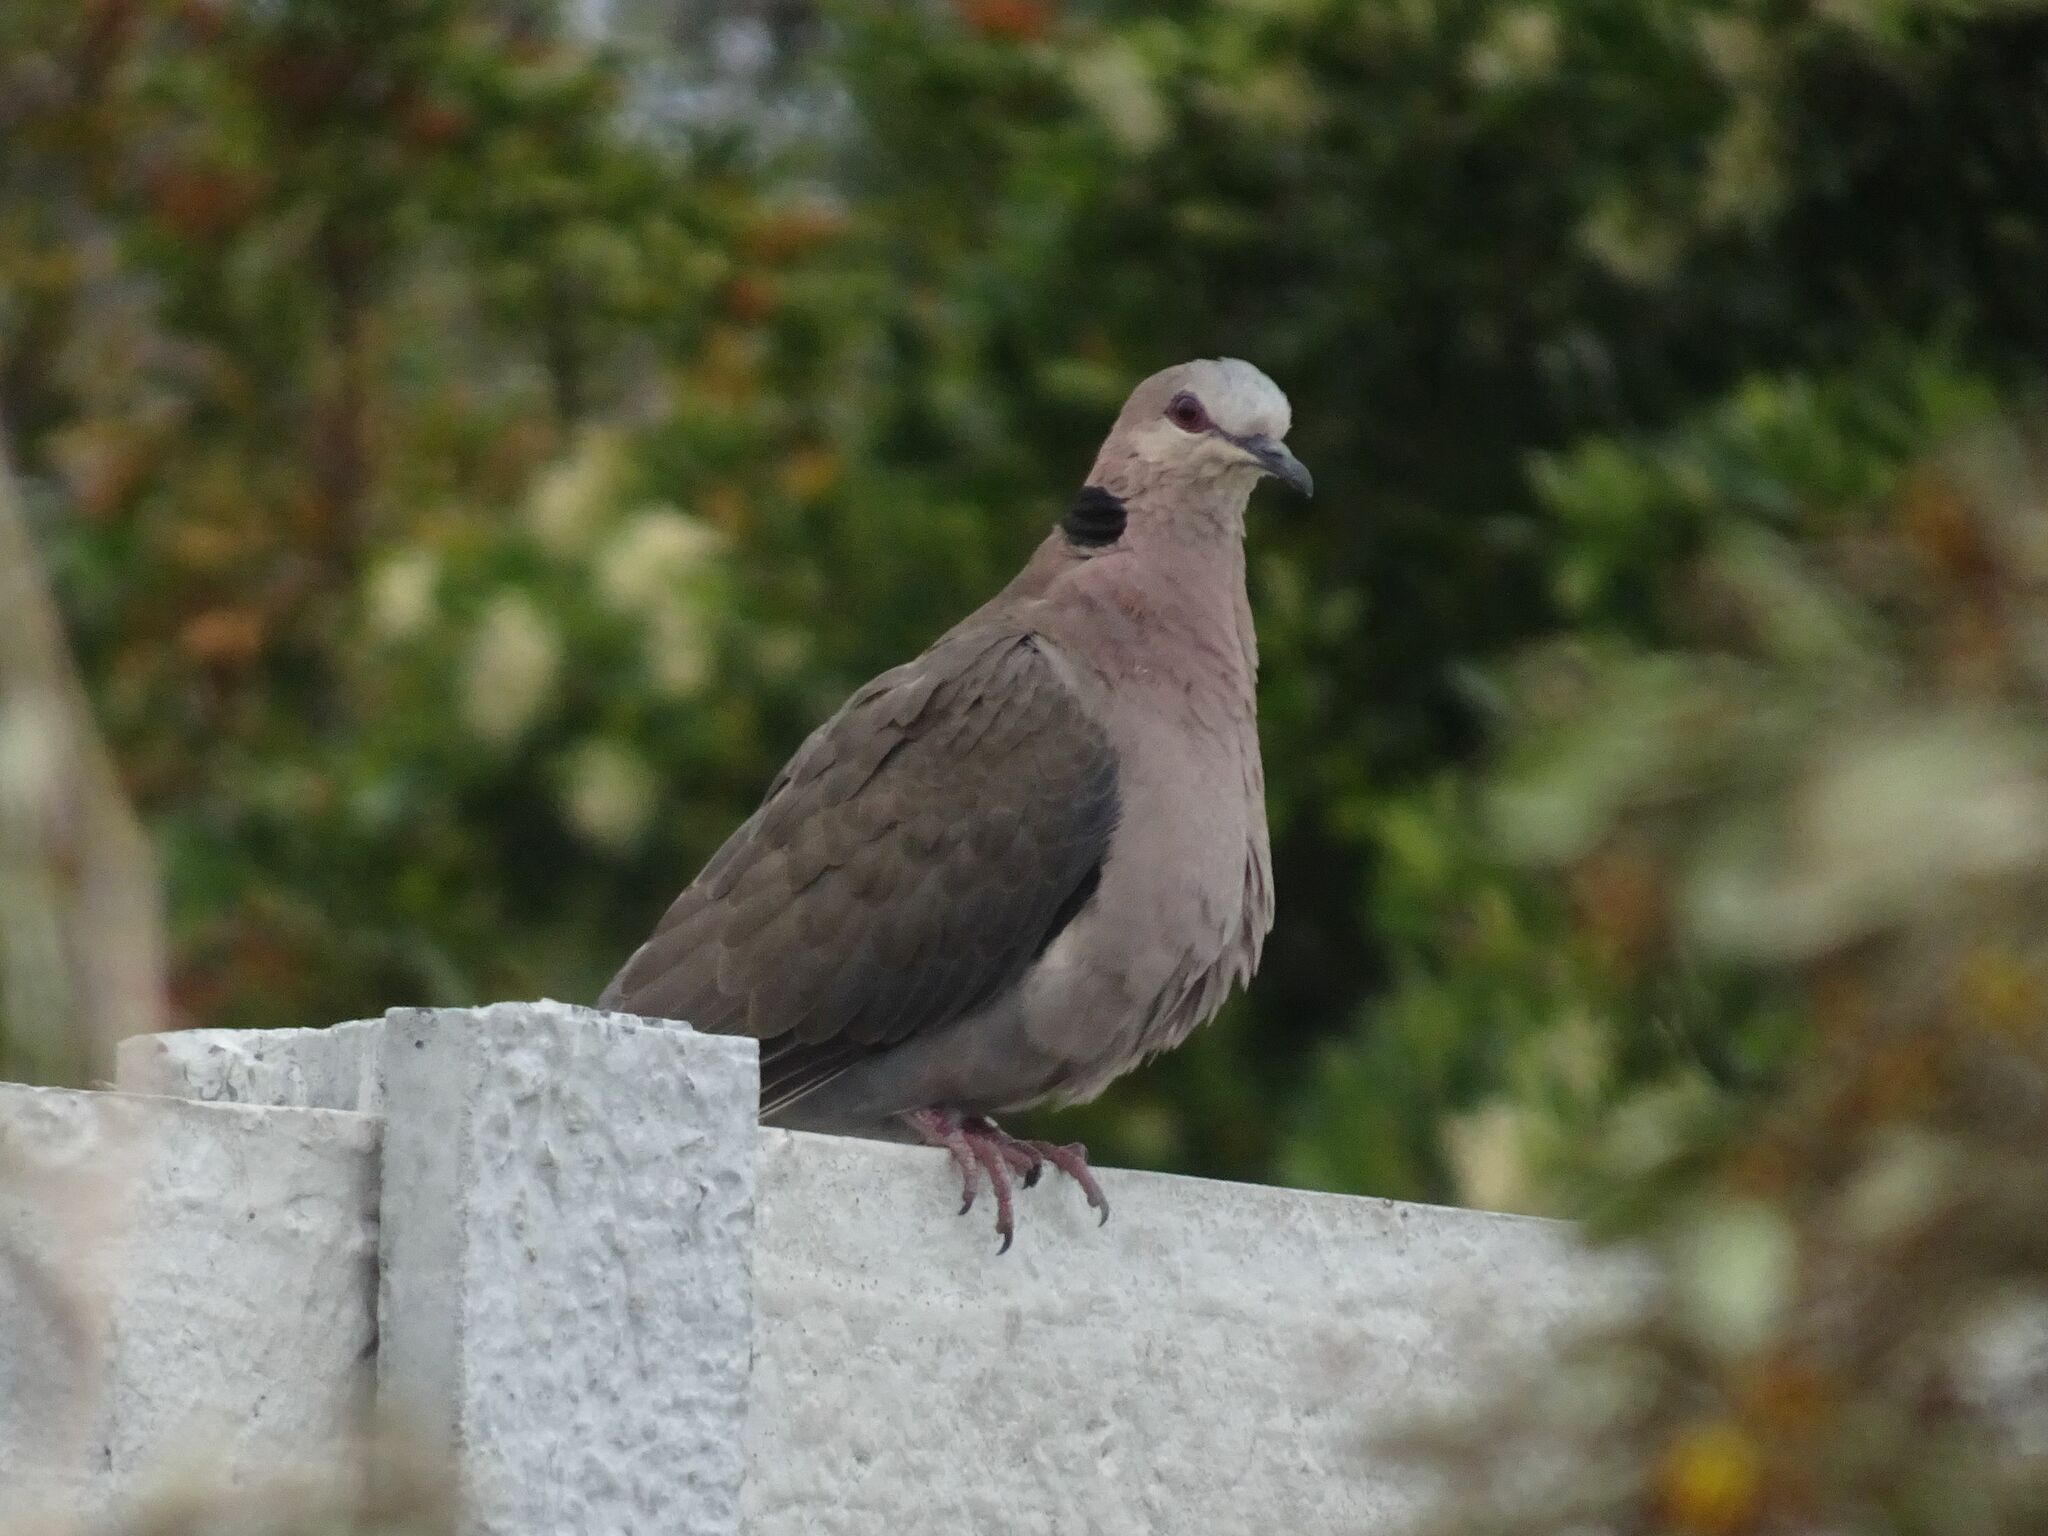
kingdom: Animalia
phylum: Chordata
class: Aves
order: Columbiformes
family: Columbidae
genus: Streptopelia
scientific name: Streptopelia semitorquata
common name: Red-eyed dove
